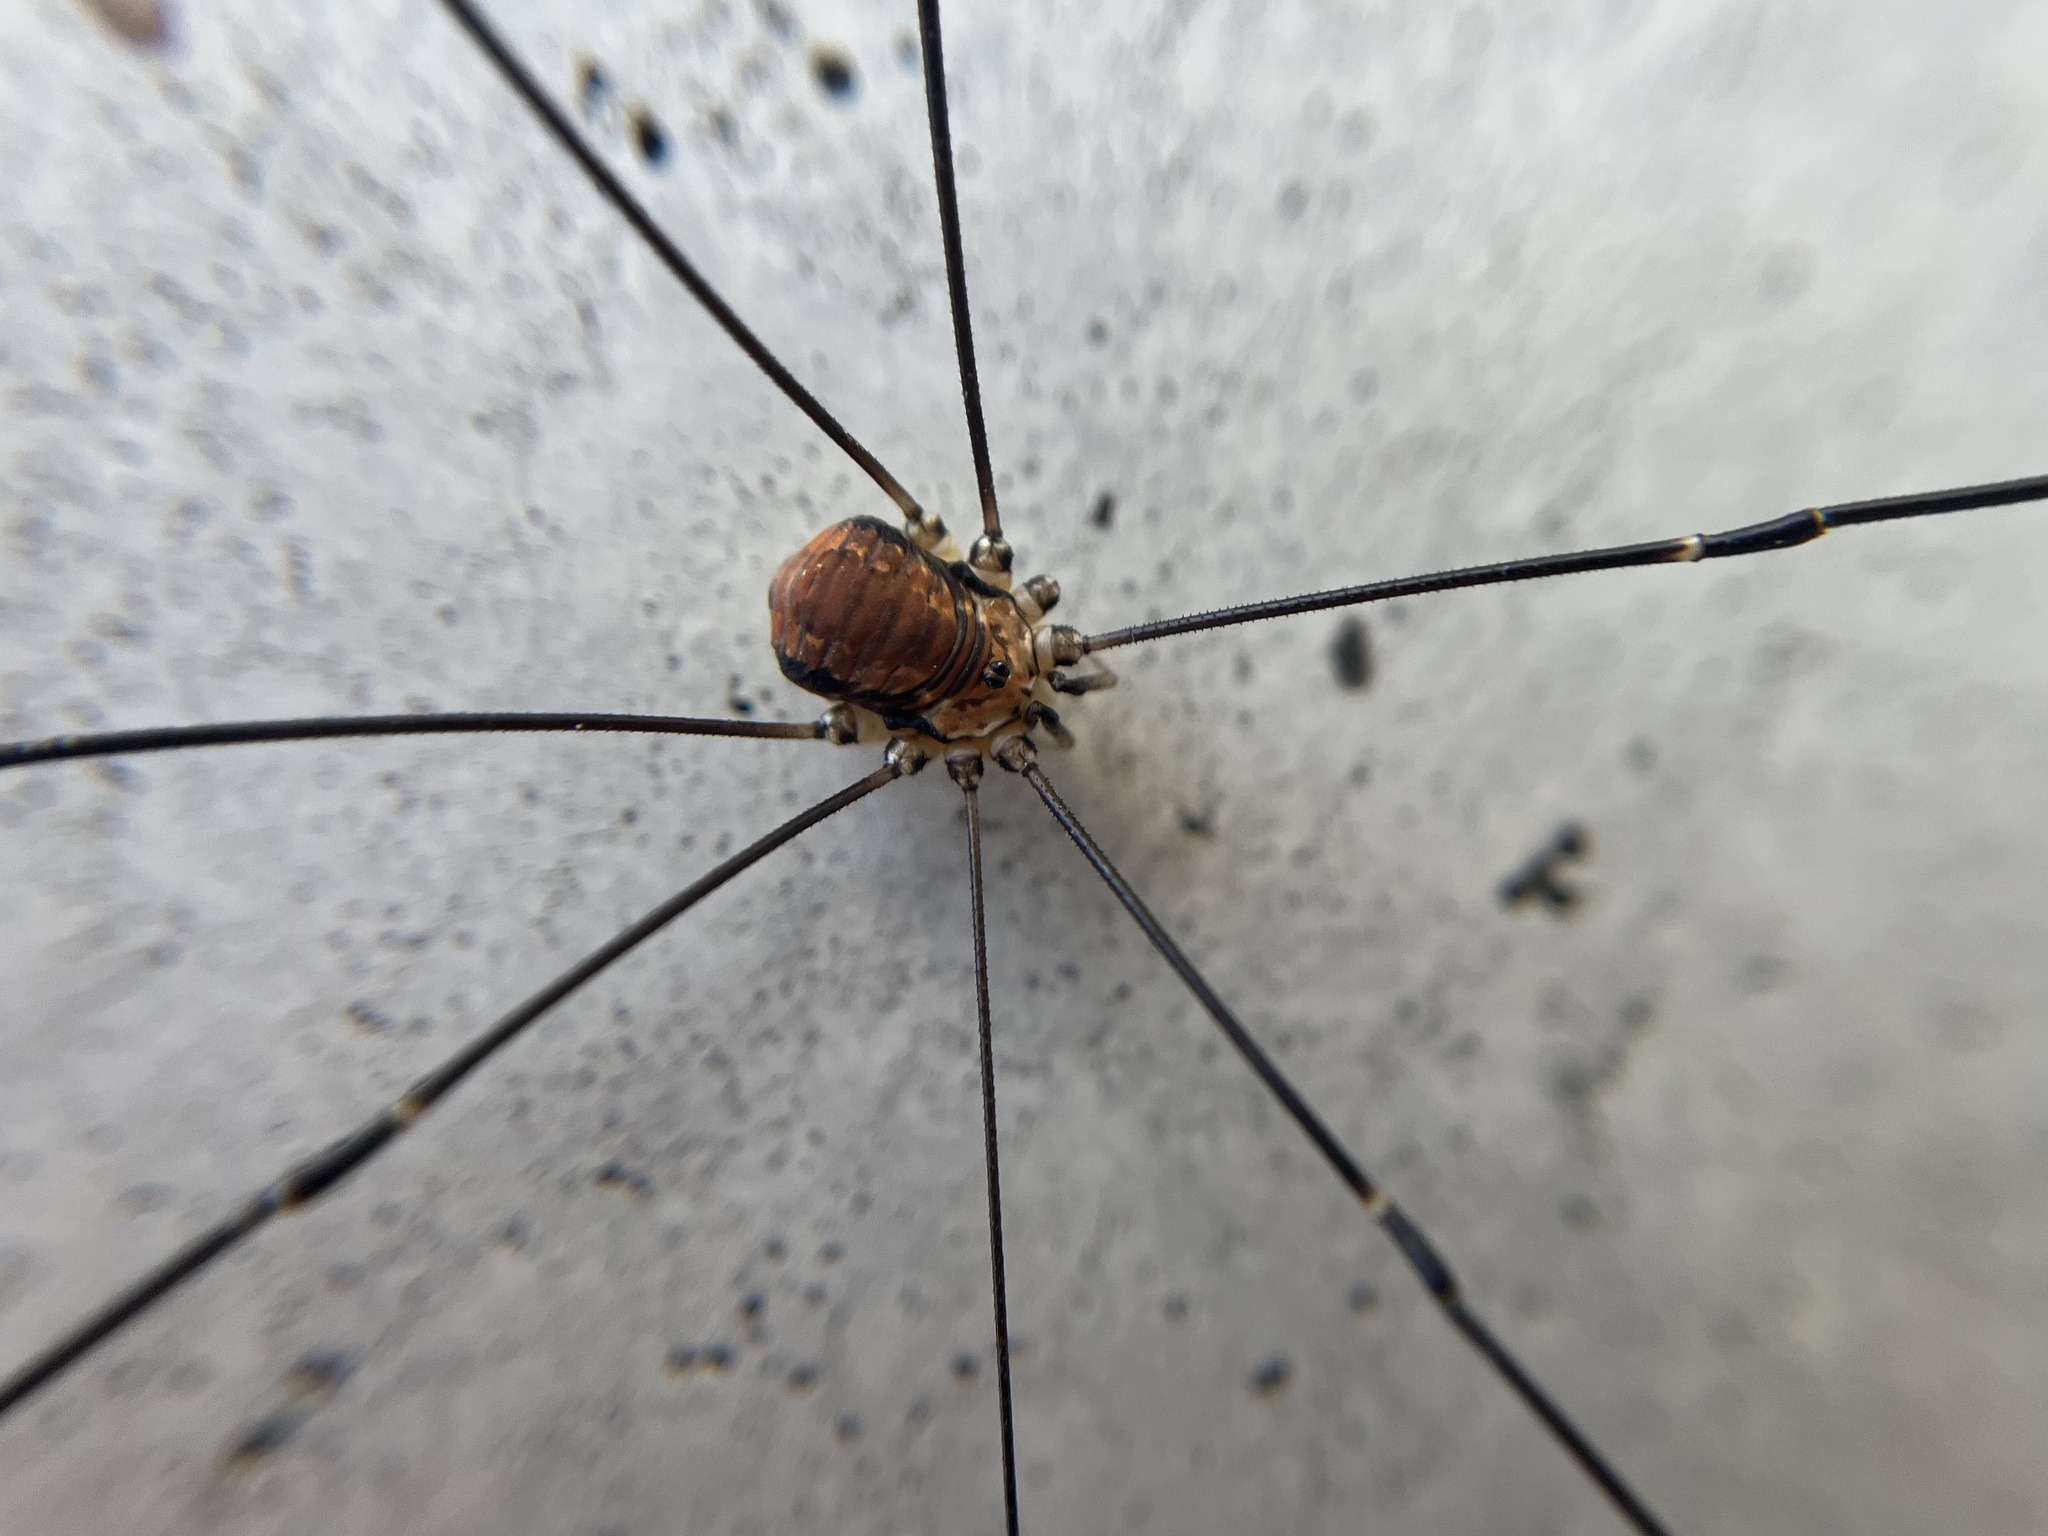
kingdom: Animalia
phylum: Arthropoda
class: Arachnida
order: Opiliones
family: Sclerosomatidae
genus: Leiobunum
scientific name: Leiobunum limbatum
